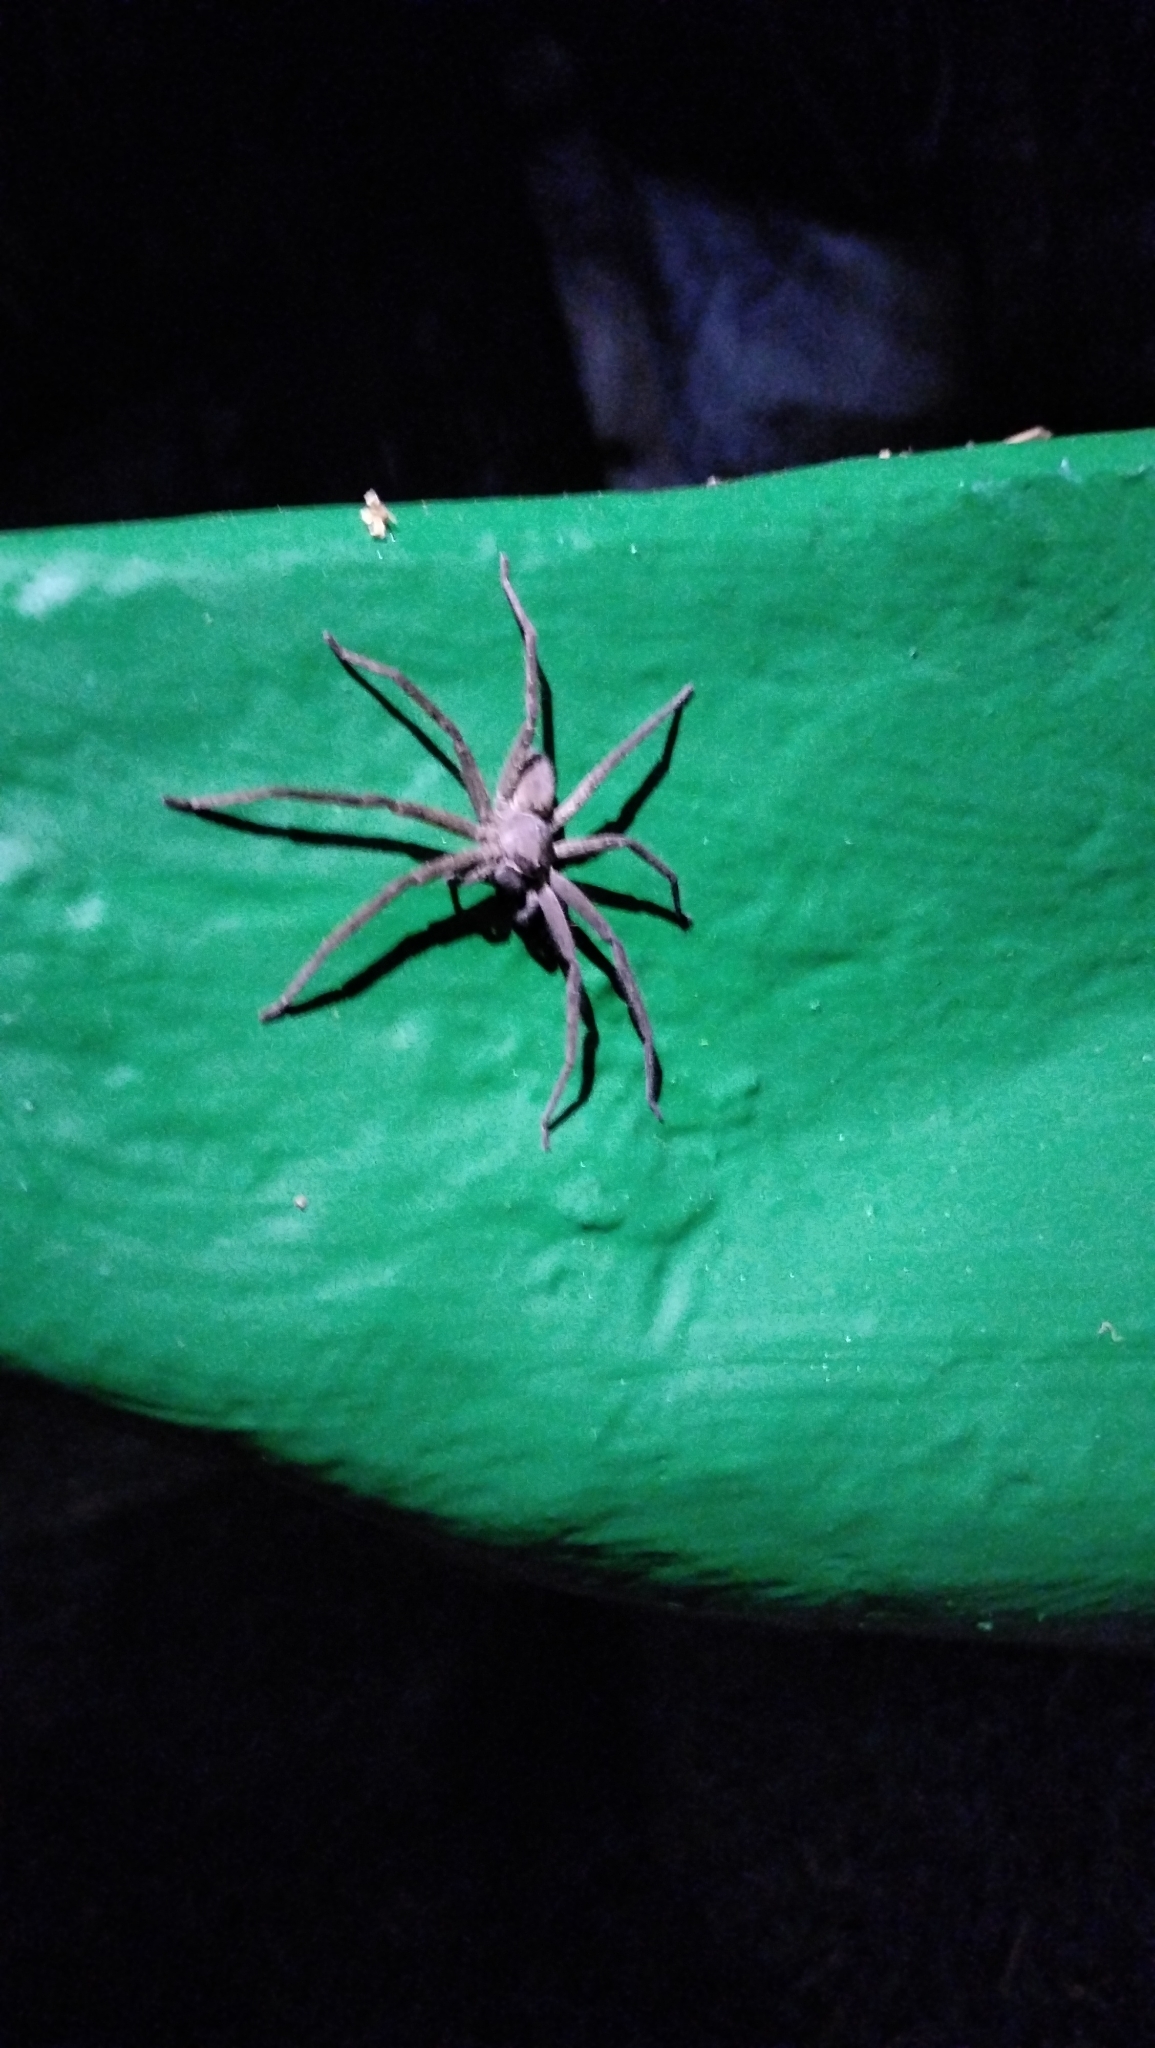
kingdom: Animalia
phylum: Arthropoda
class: Arachnida
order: Araneae
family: Sparassidae
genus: Heteropoda
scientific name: Heteropoda venatoria
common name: Huntsman spider
